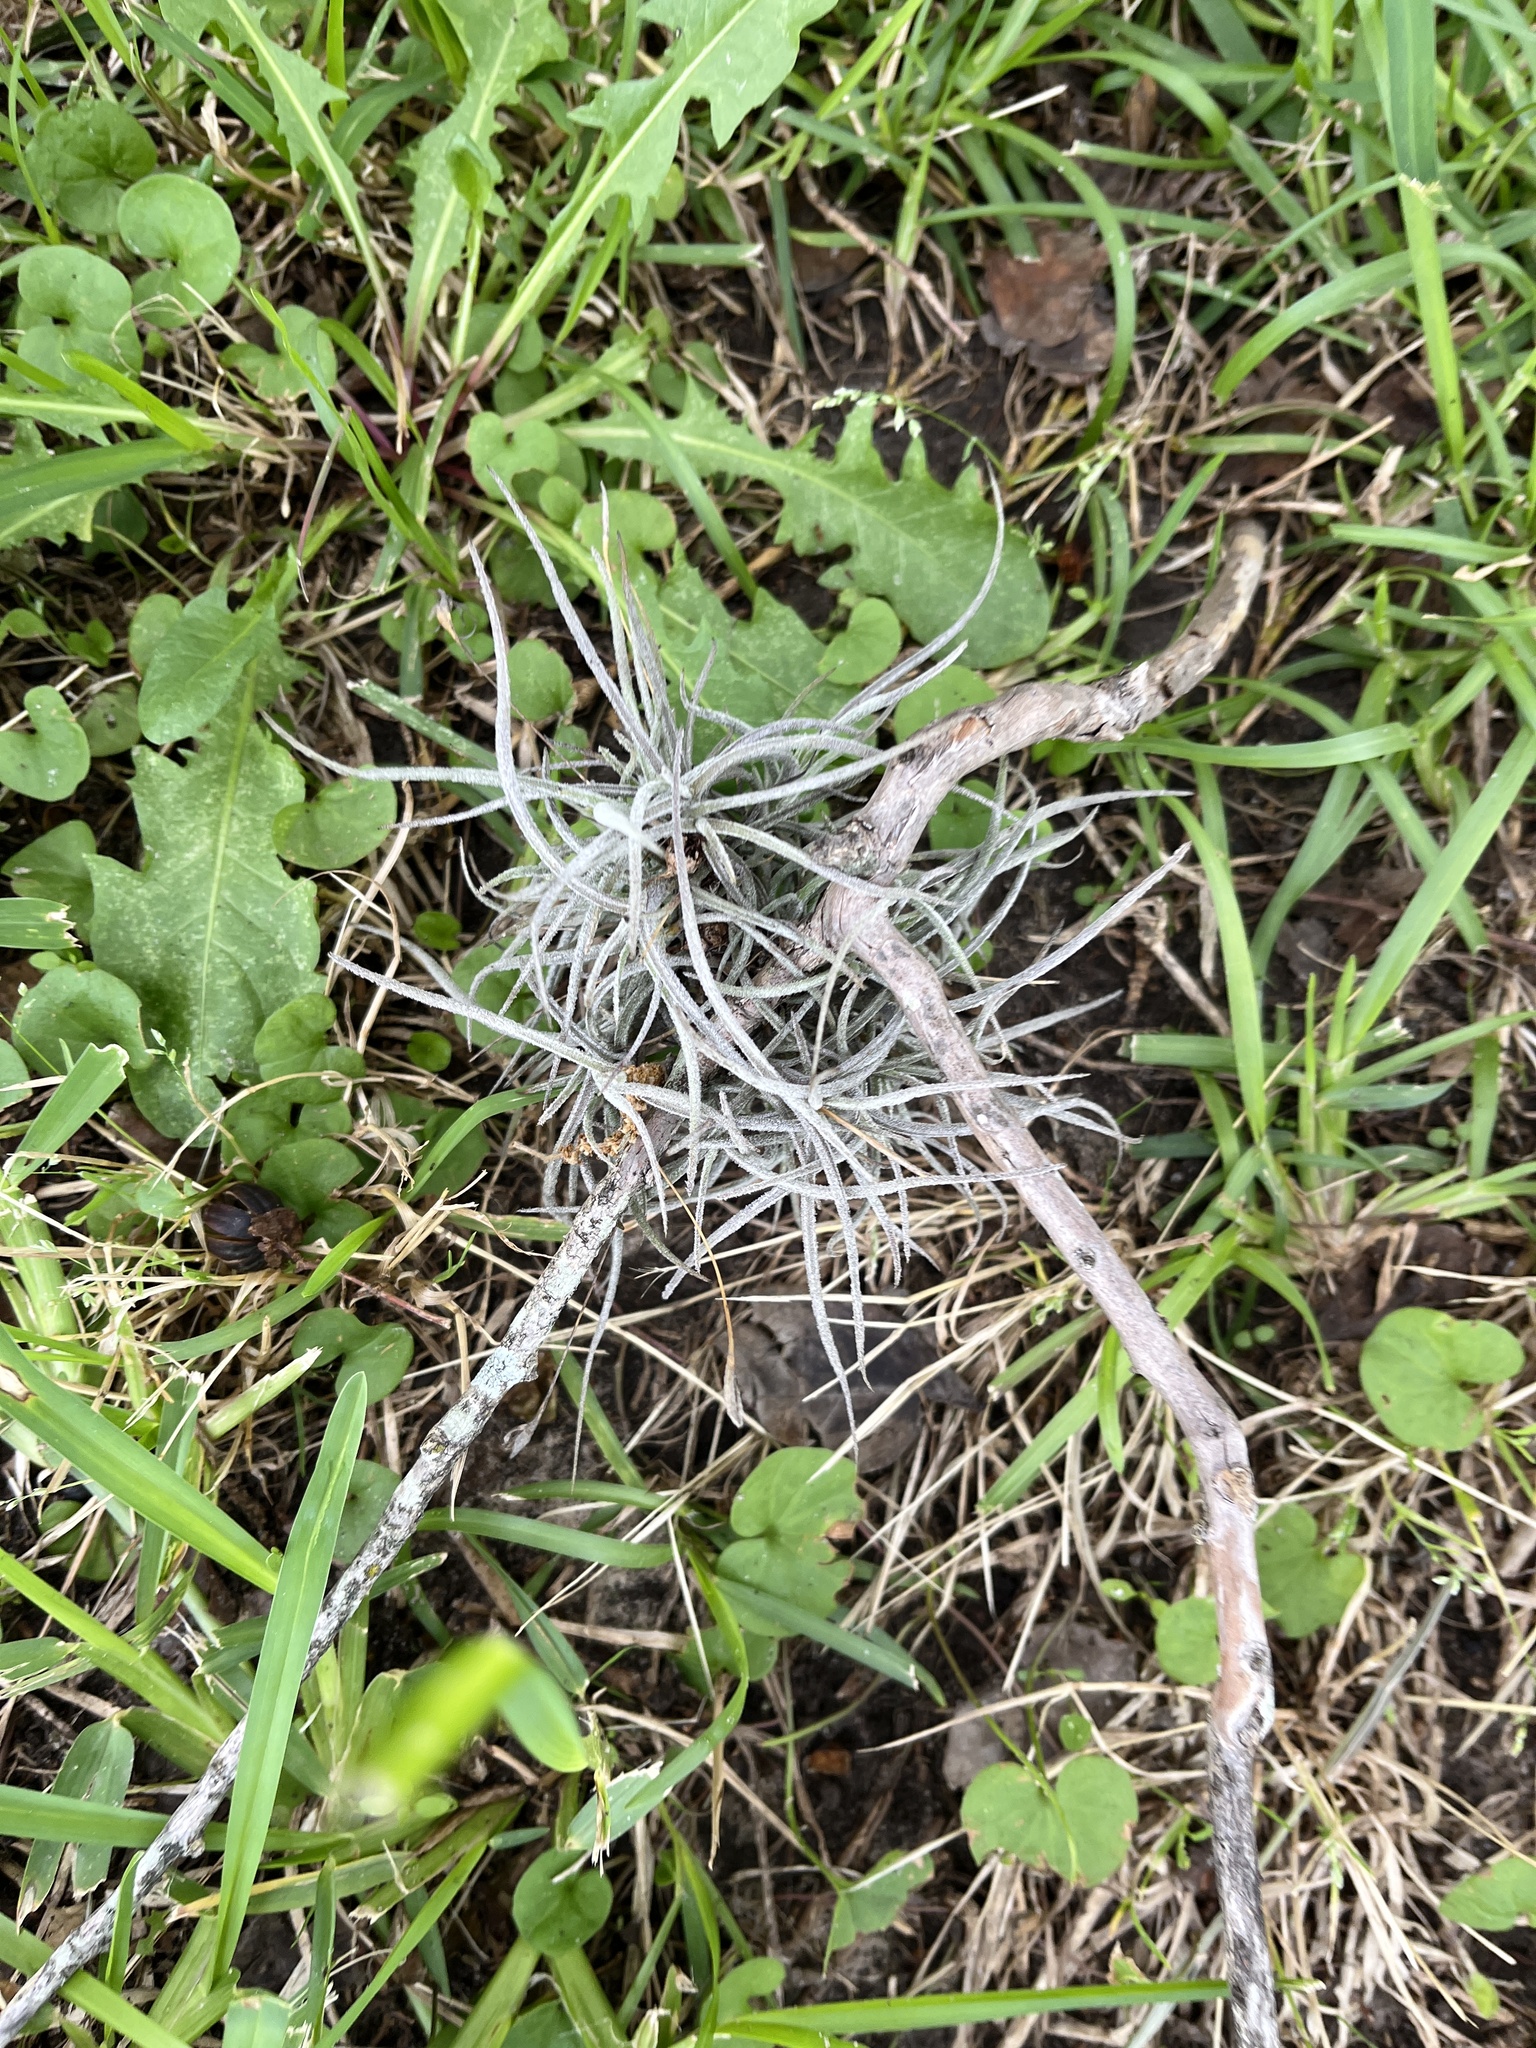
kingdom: Plantae
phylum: Tracheophyta
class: Liliopsida
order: Poales
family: Bromeliaceae
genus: Tillandsia
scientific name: Tillandsia recurvata
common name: Small ballmoss
